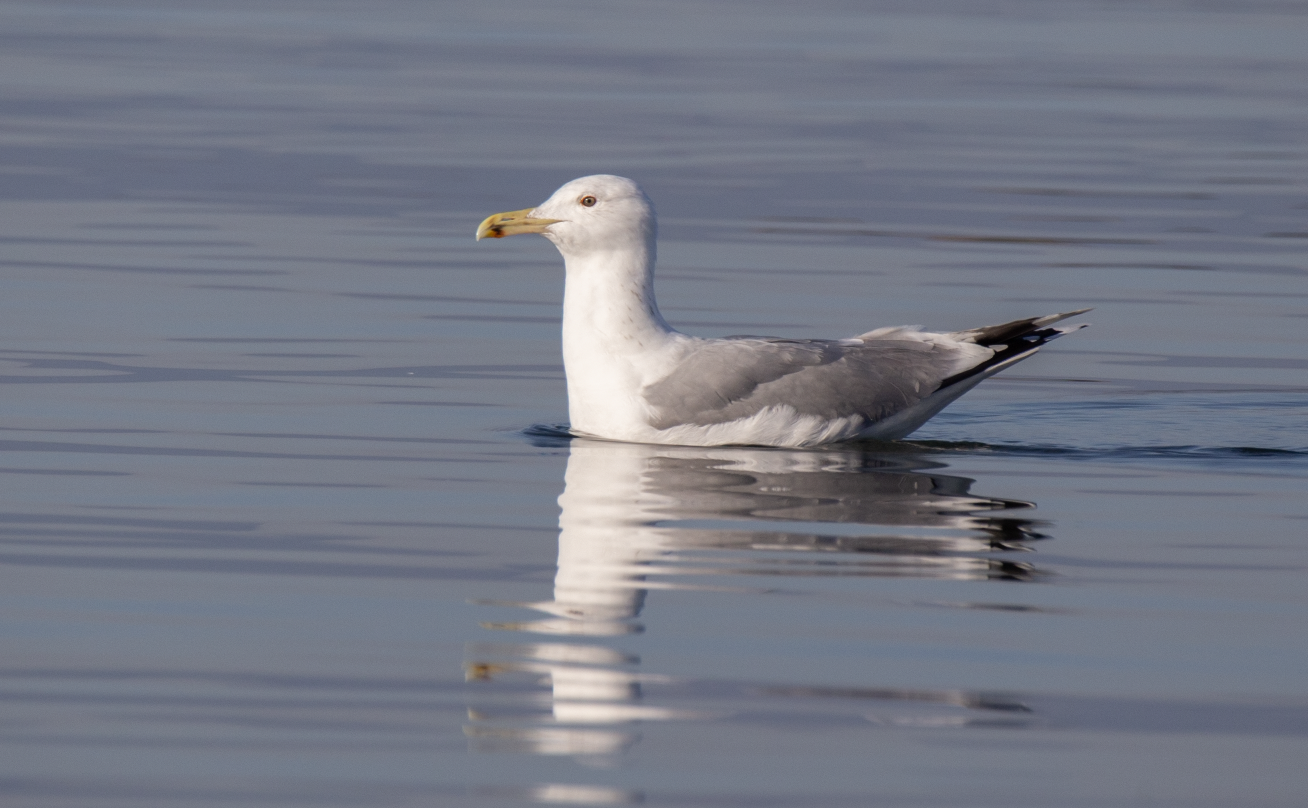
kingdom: Animalia
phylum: Chordata
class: Aves
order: Charadriiformes
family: Laridae
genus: Larus
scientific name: Larus michahellis
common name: Yellow-legged gull
